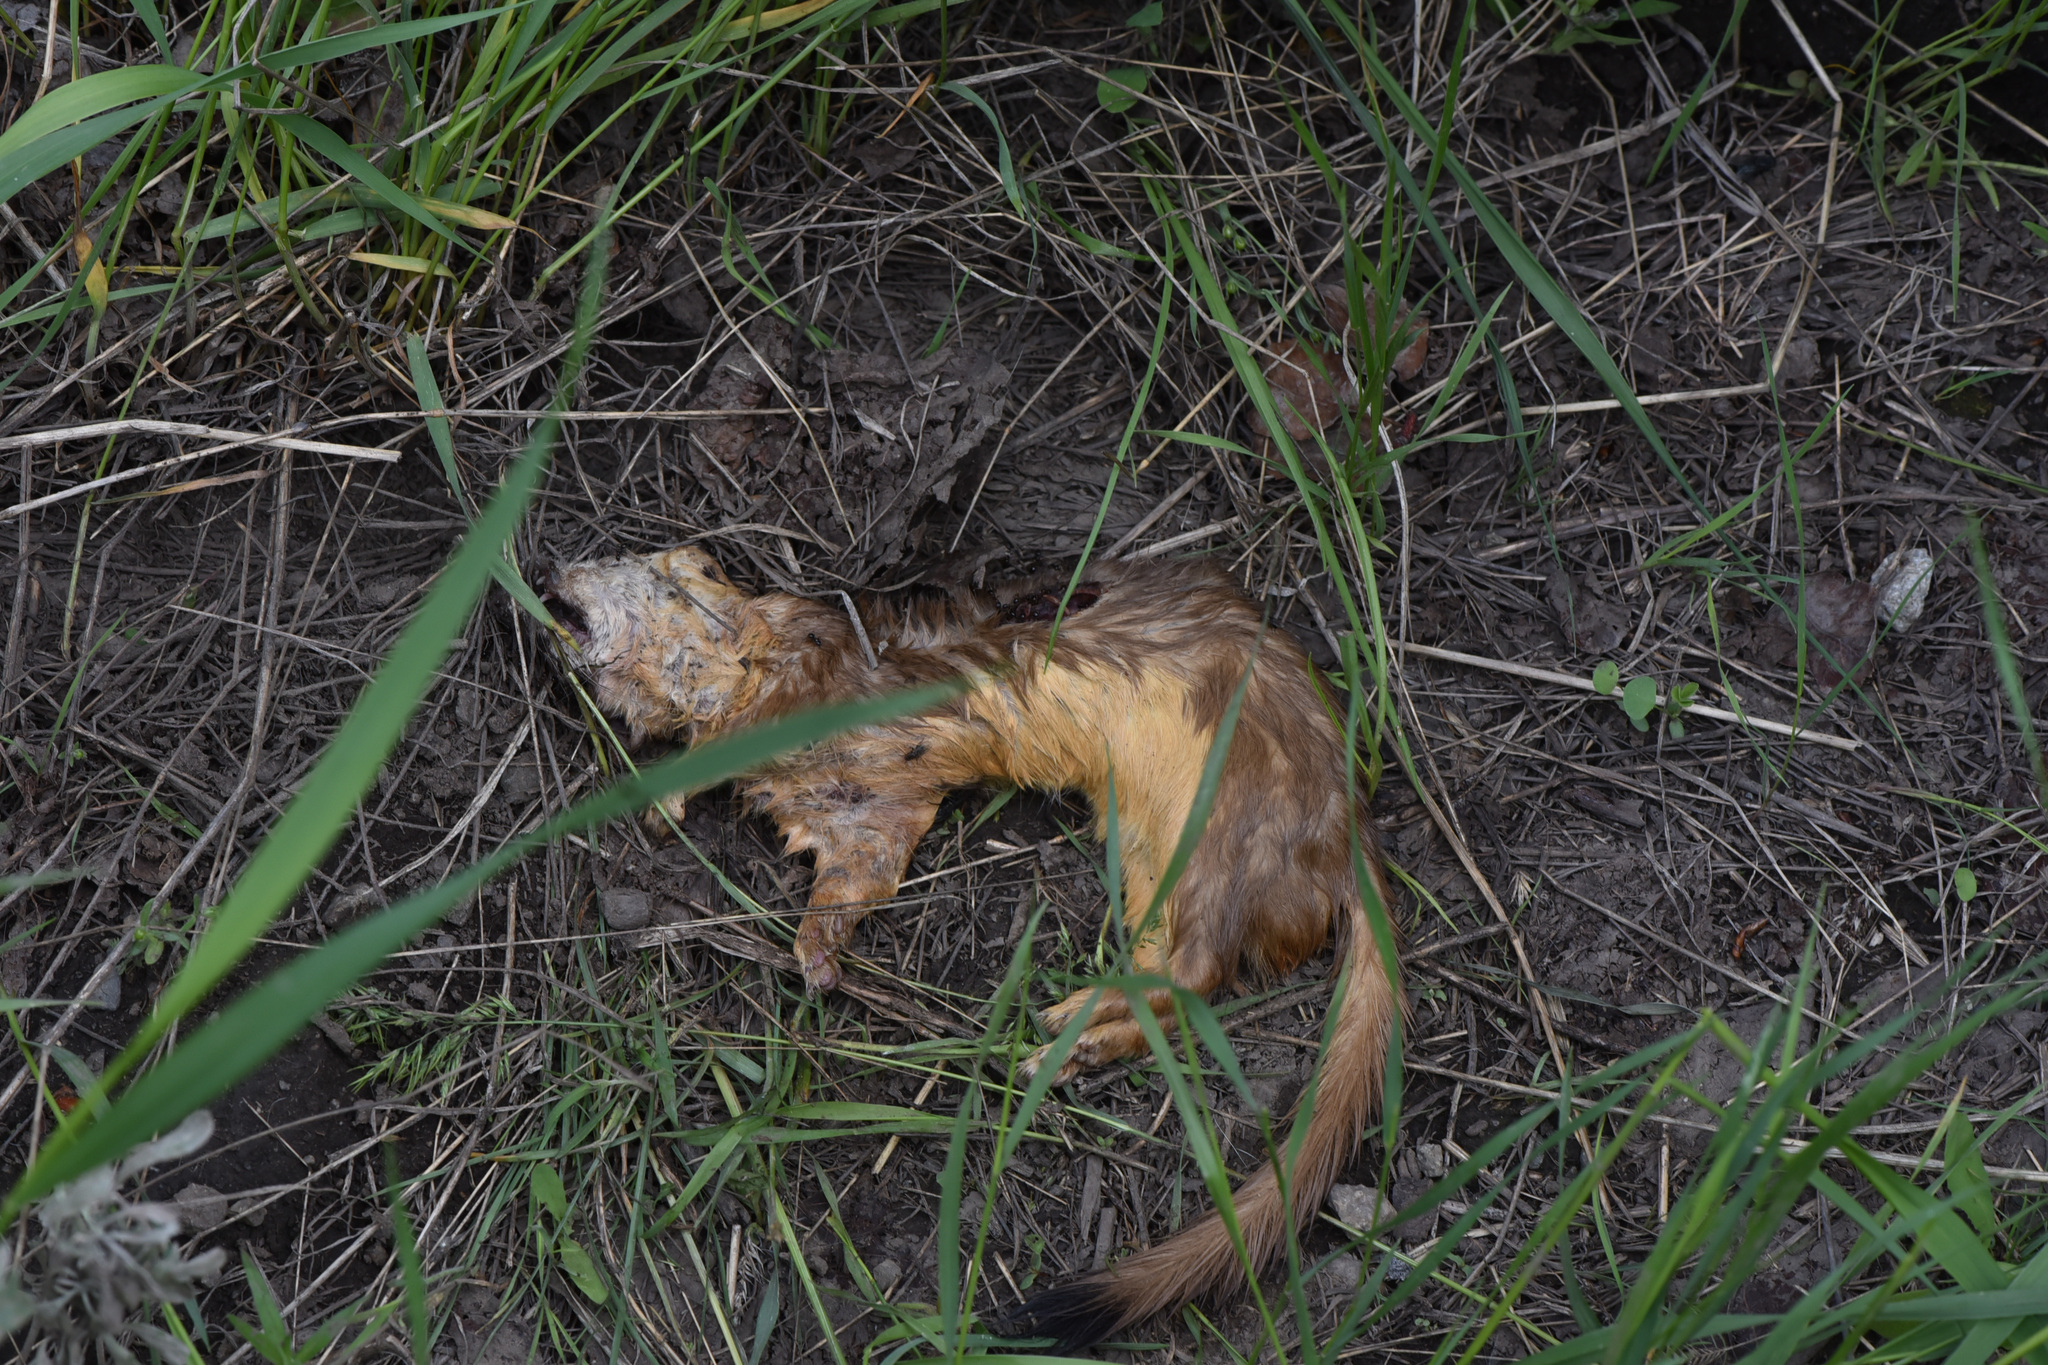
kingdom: Animalia
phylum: Chordata
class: Mammalia
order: Carnivora
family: Mustelidae
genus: Mustela
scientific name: Mustela
